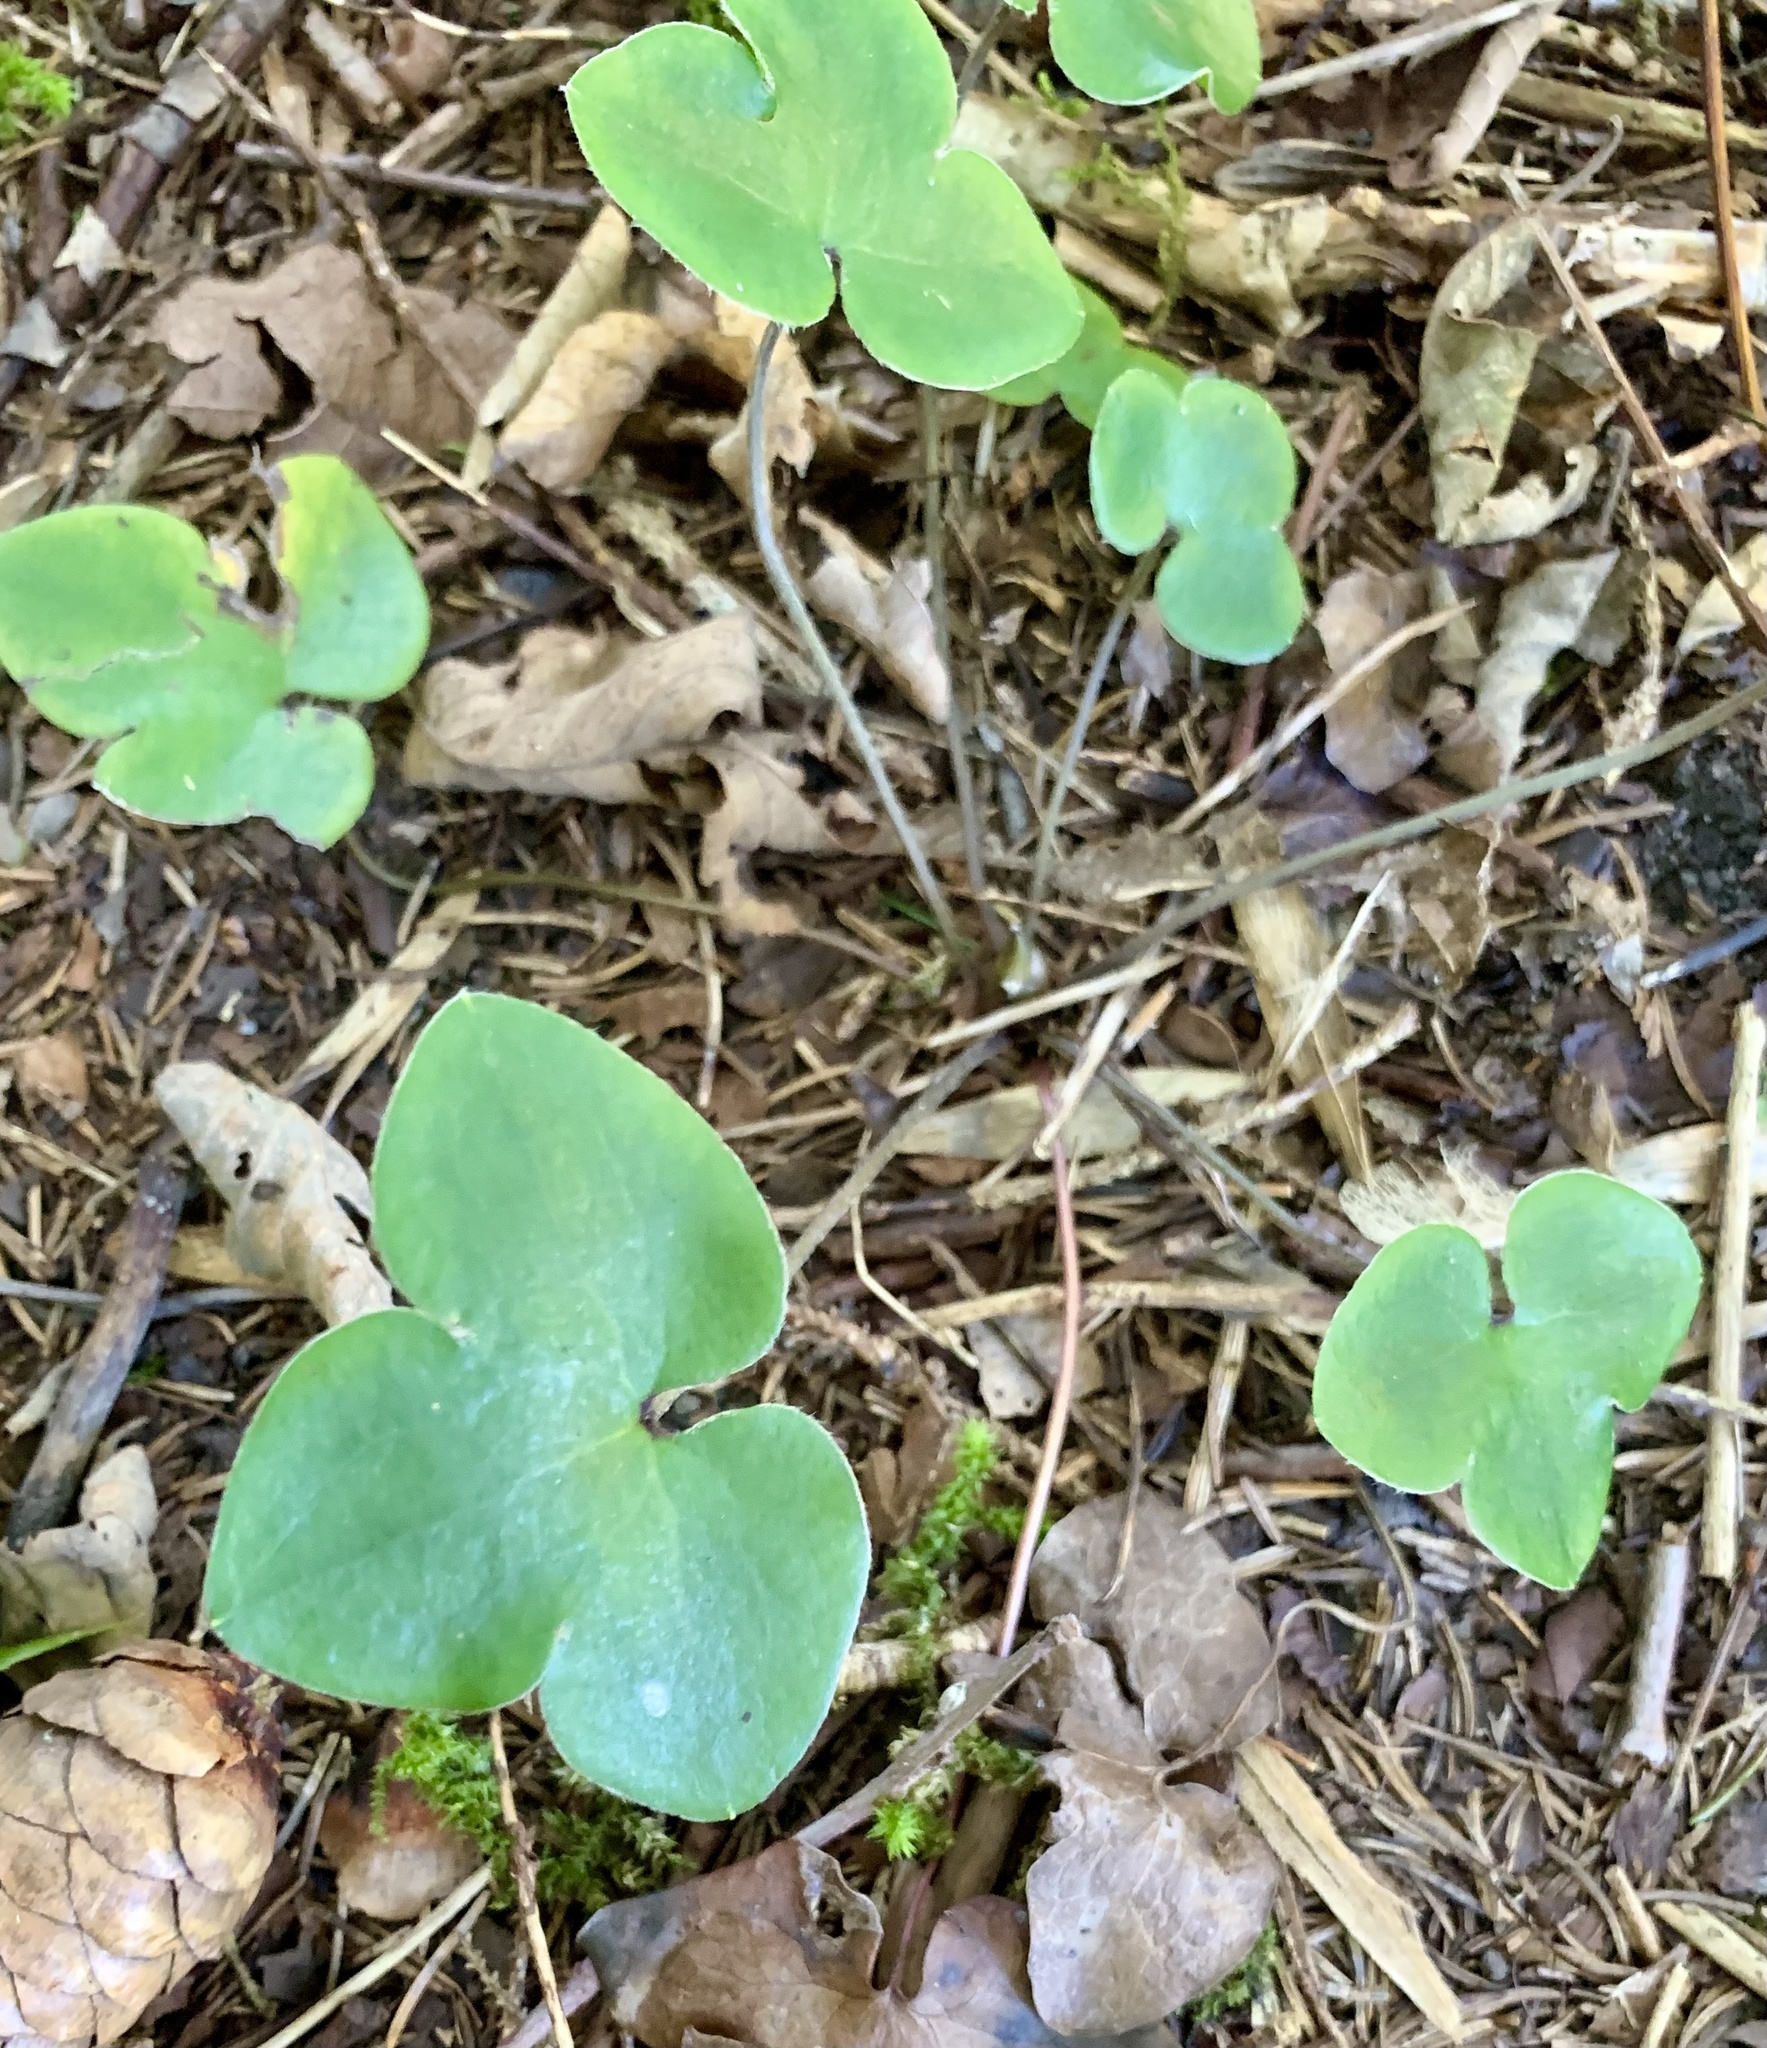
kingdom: Plantae
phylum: Tracheophyta
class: Magnoliopsida
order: Ranunculales
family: Ranunculaceae
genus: Hepatica
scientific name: Hepatica nobilis
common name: Liverleaf
